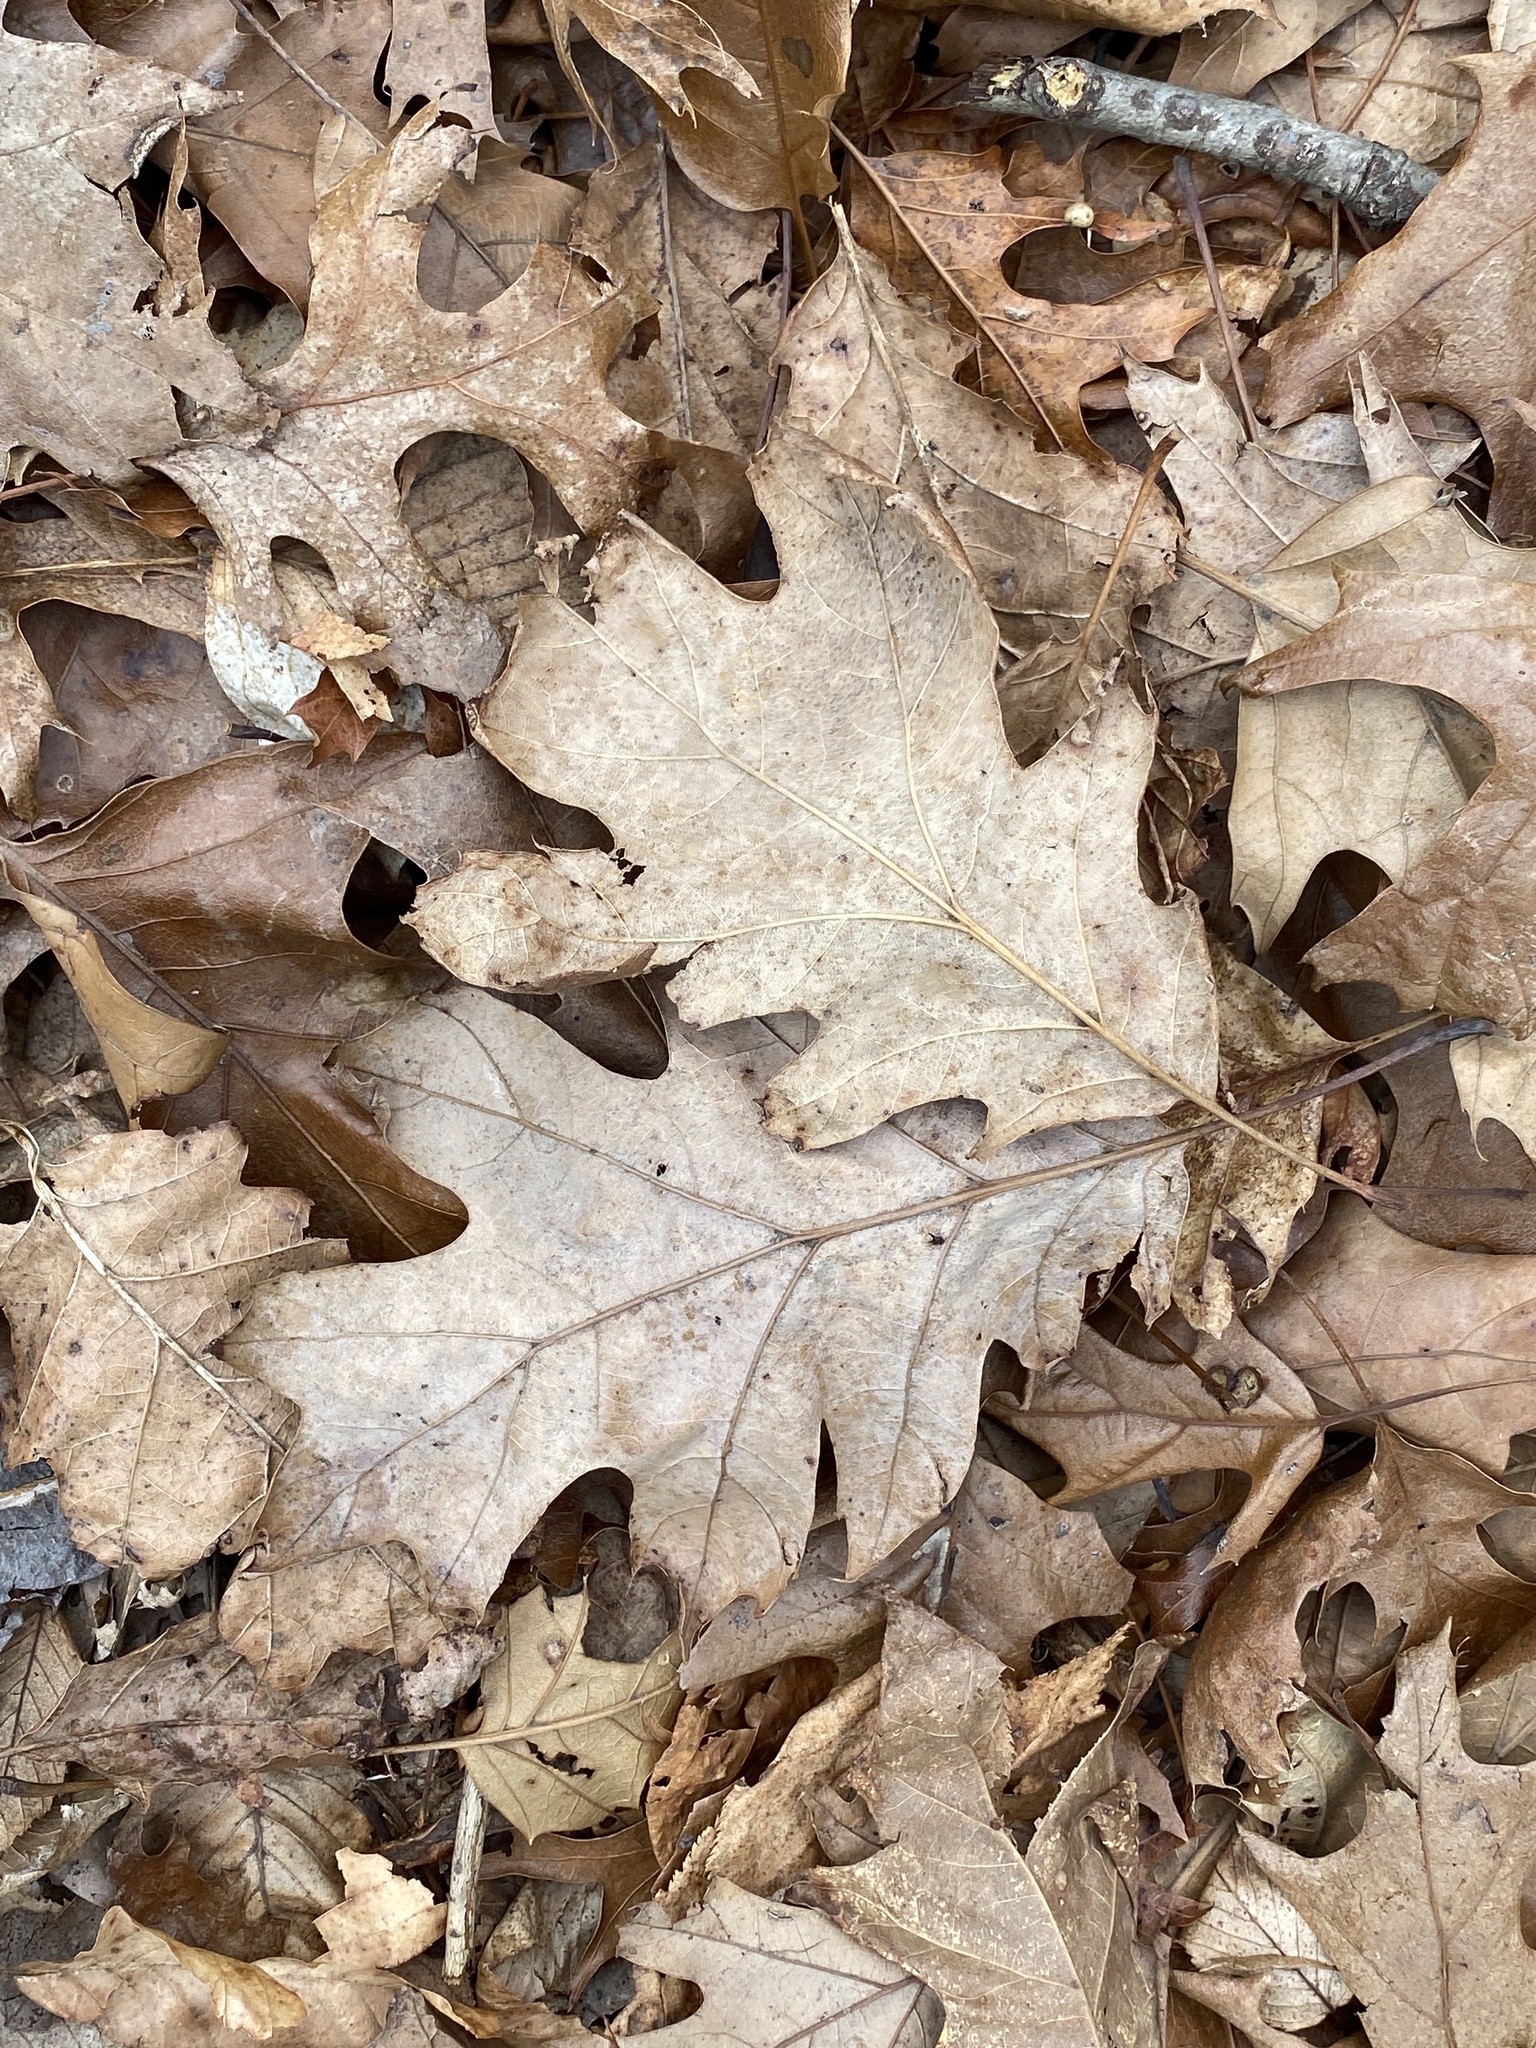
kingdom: Fungi
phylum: Basidiomycota
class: Agaricomycetes
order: Russulales
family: Stereaceae
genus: Acanthophysium
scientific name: Acanthophysium oakesii
